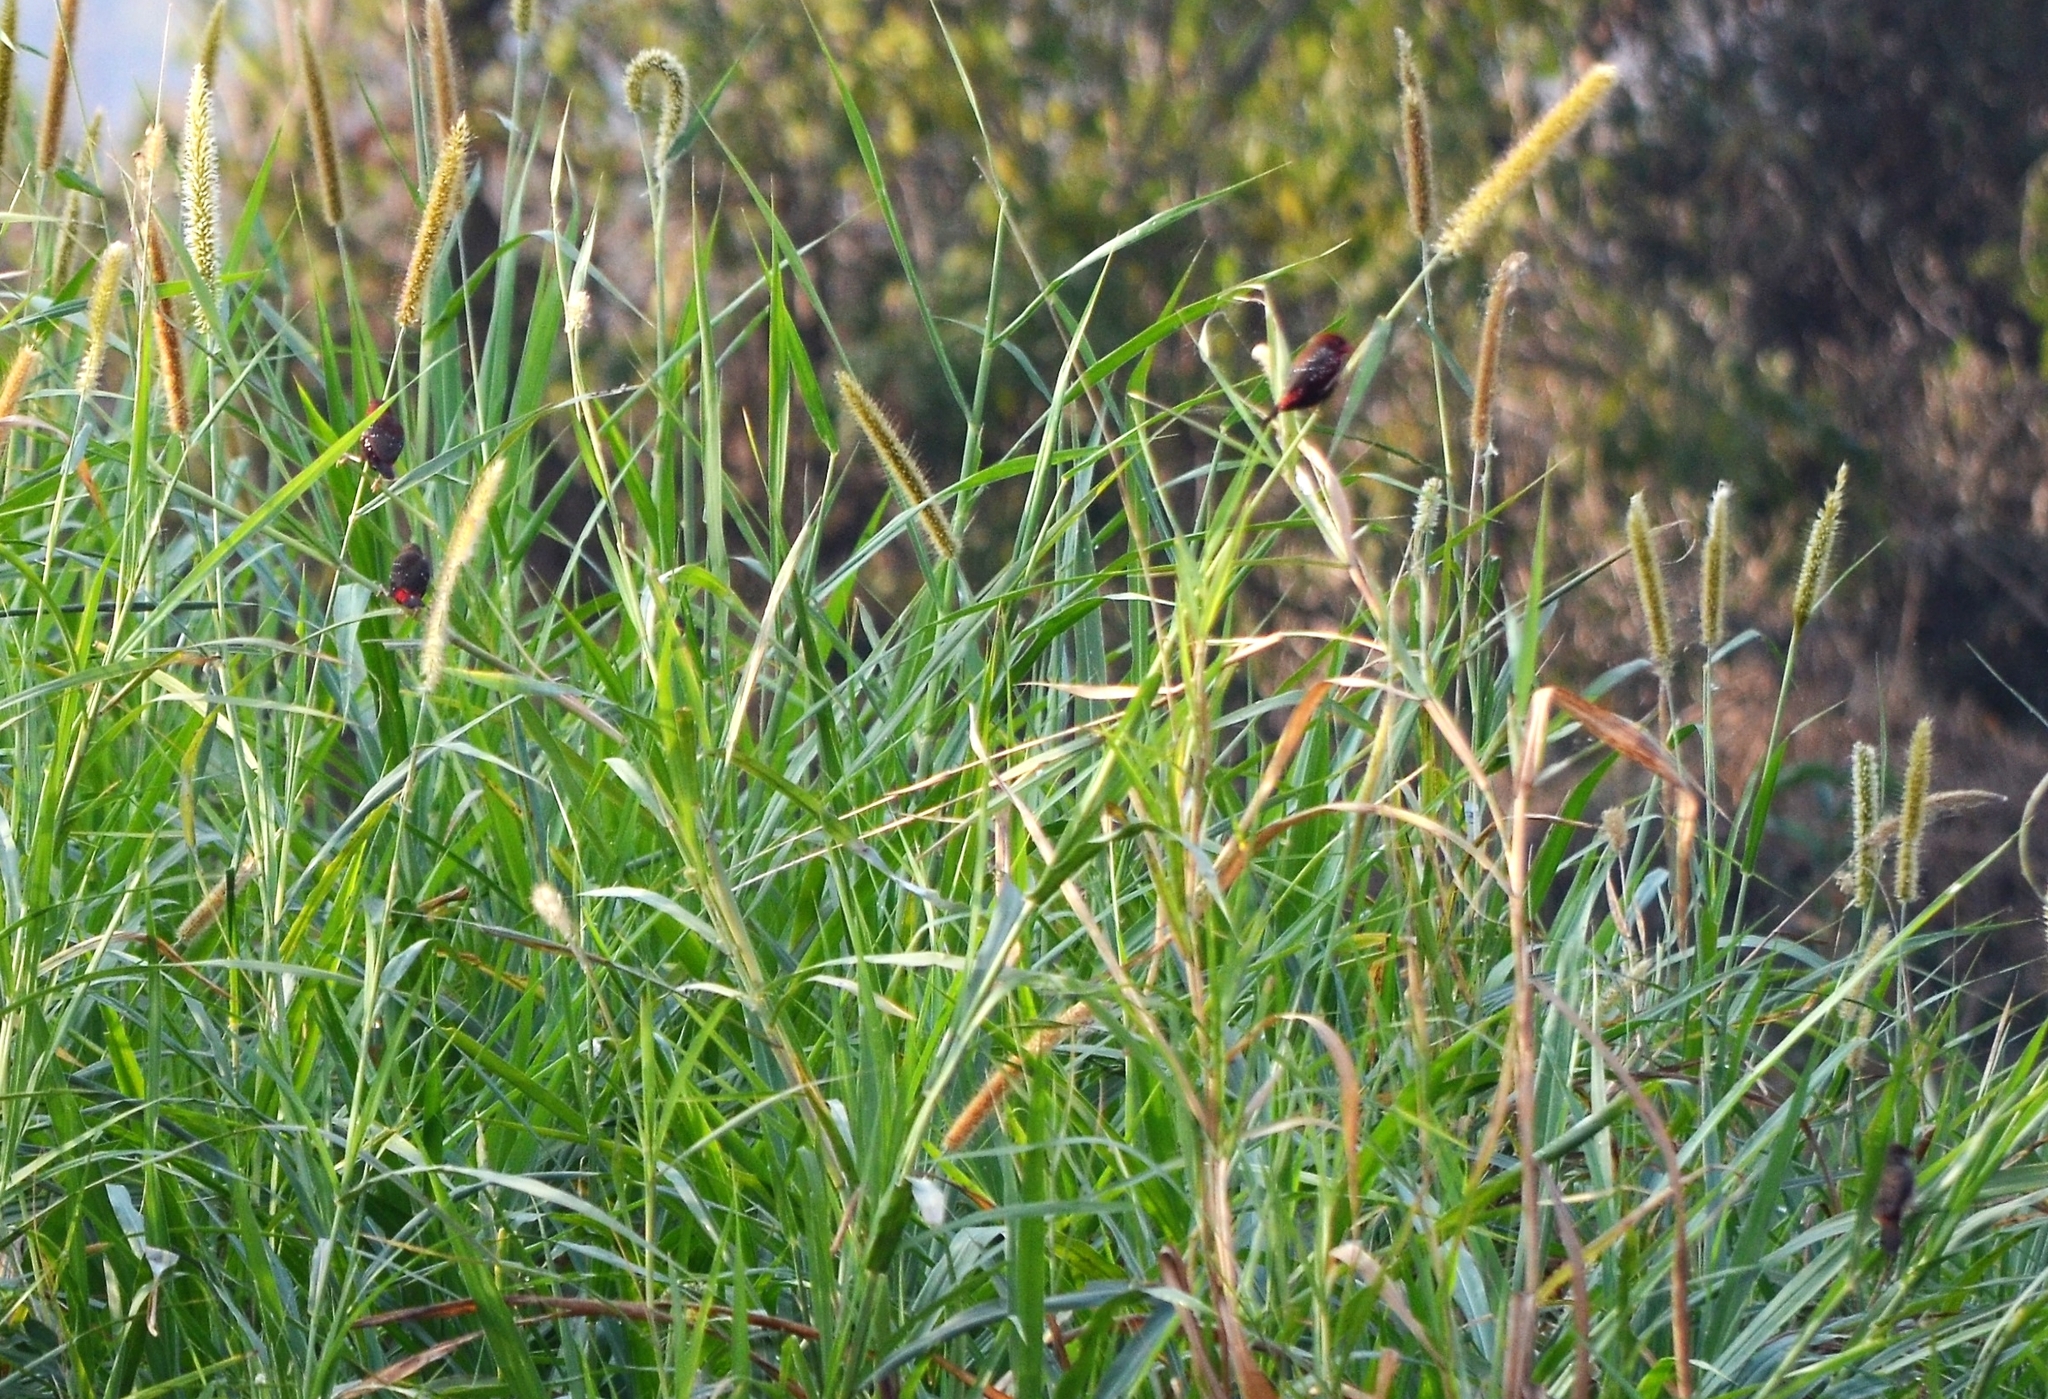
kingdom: Animalia
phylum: Chordata
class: Aves
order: Passeriformes
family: Estrildidae
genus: Amandava
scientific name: Amandava amandava
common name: Red avadavat
